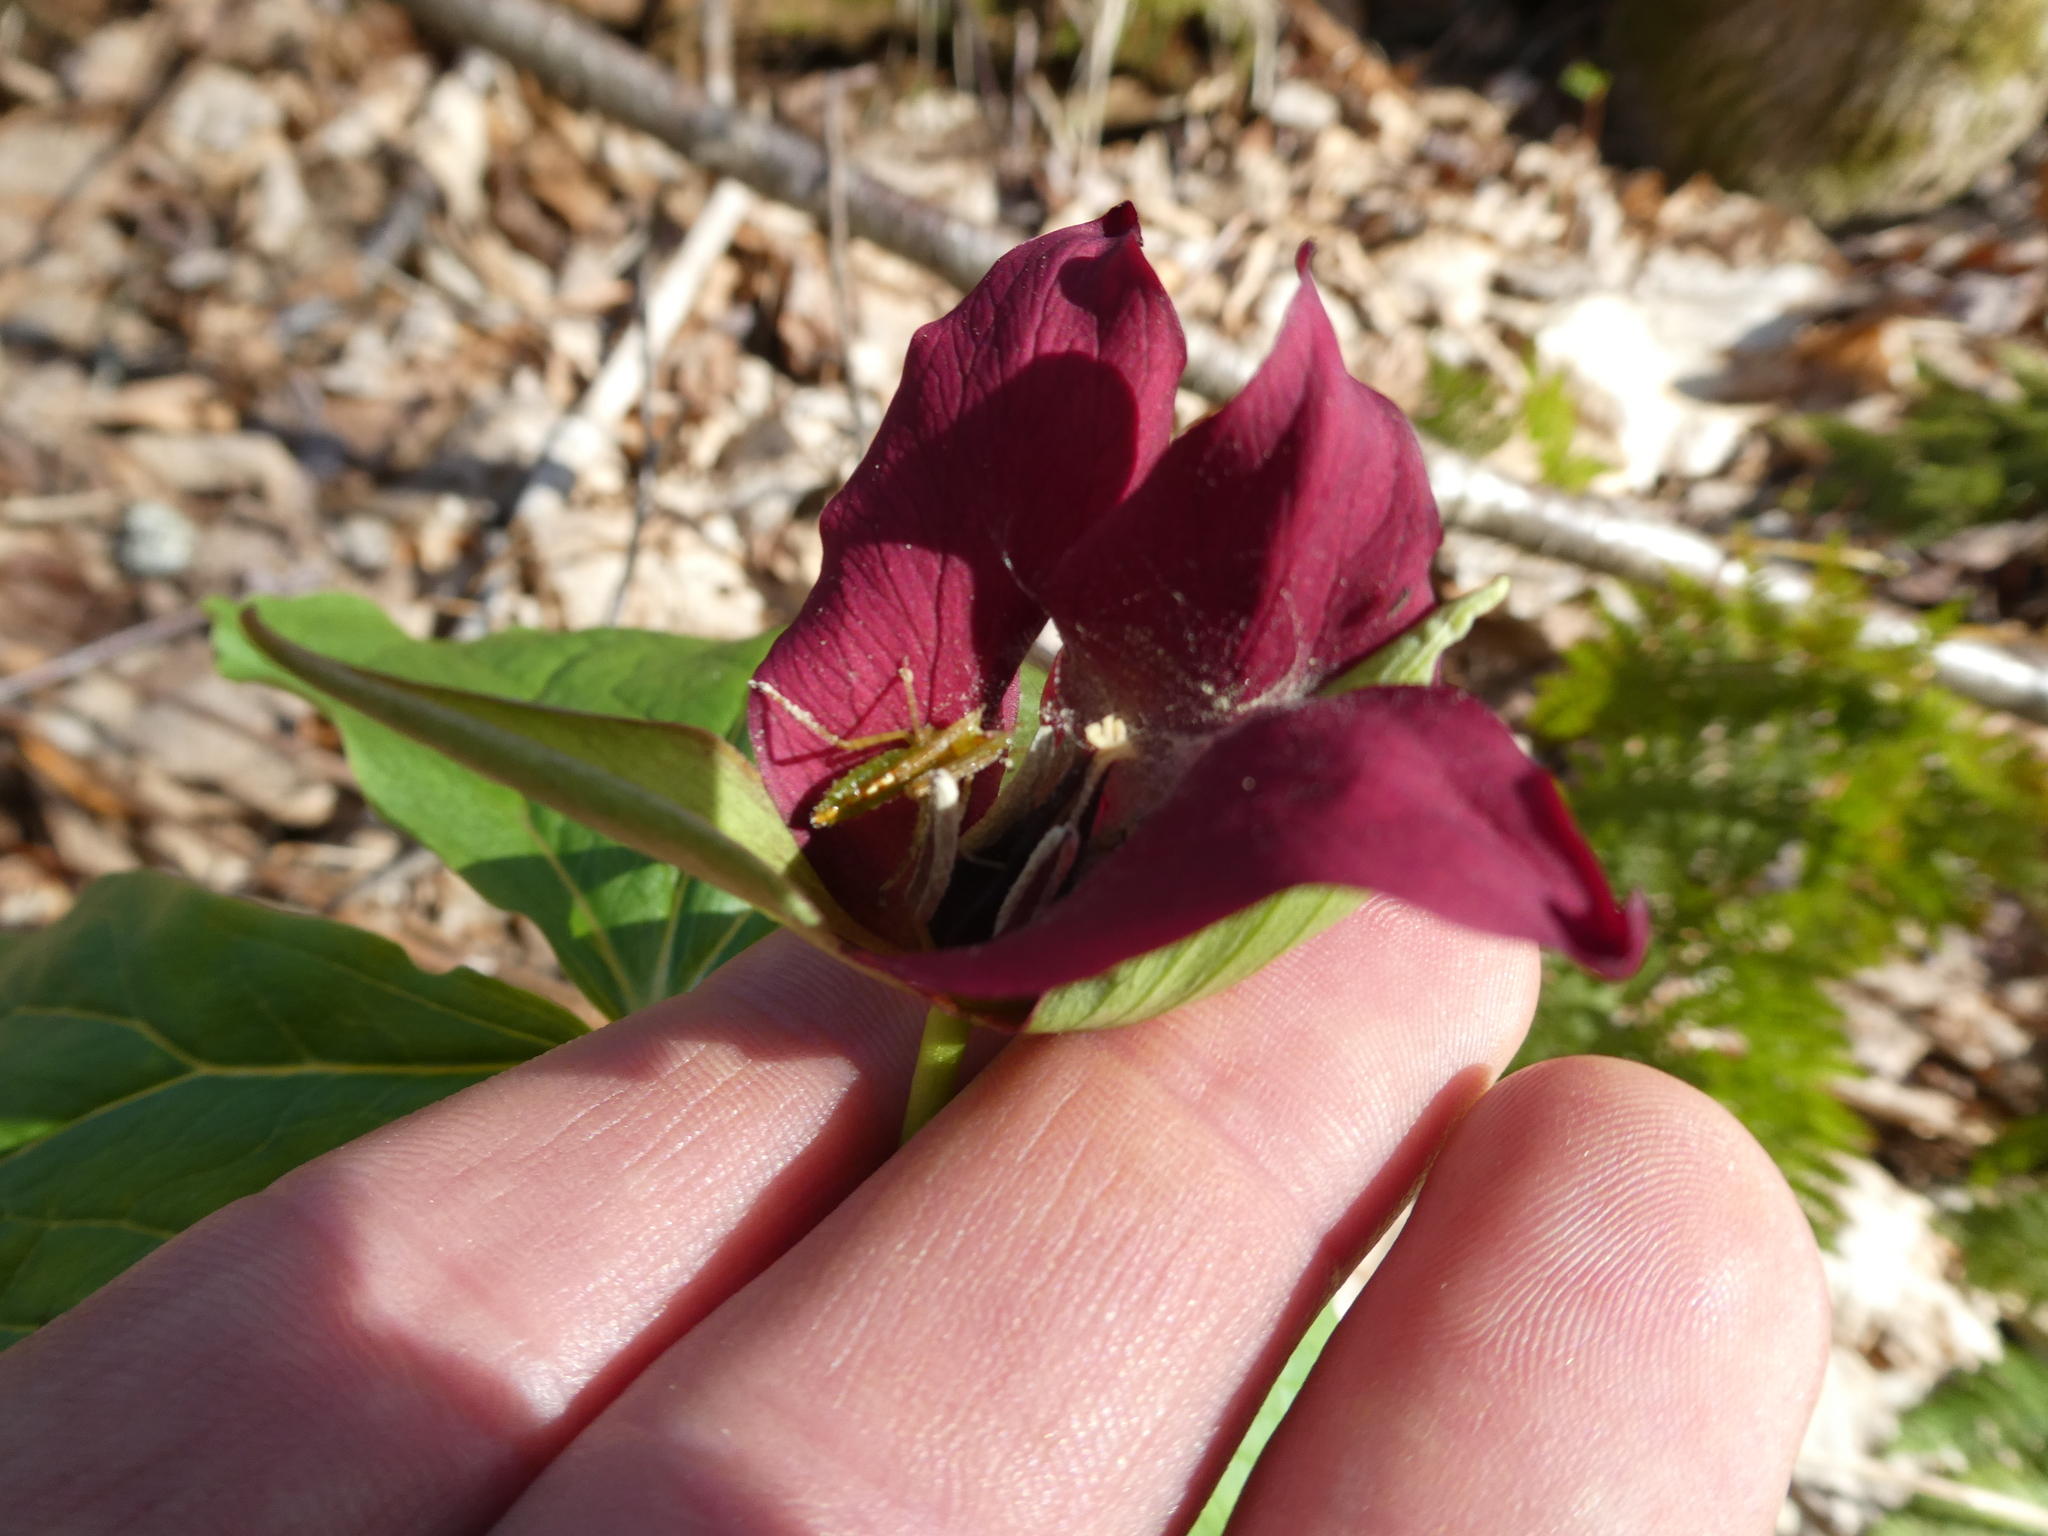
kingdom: Plantae
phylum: Tracheophyta
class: Liliopsida
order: Liliales
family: Melanthiaceae
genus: Trillium
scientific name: Trillium erectum
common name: Purple trillium
